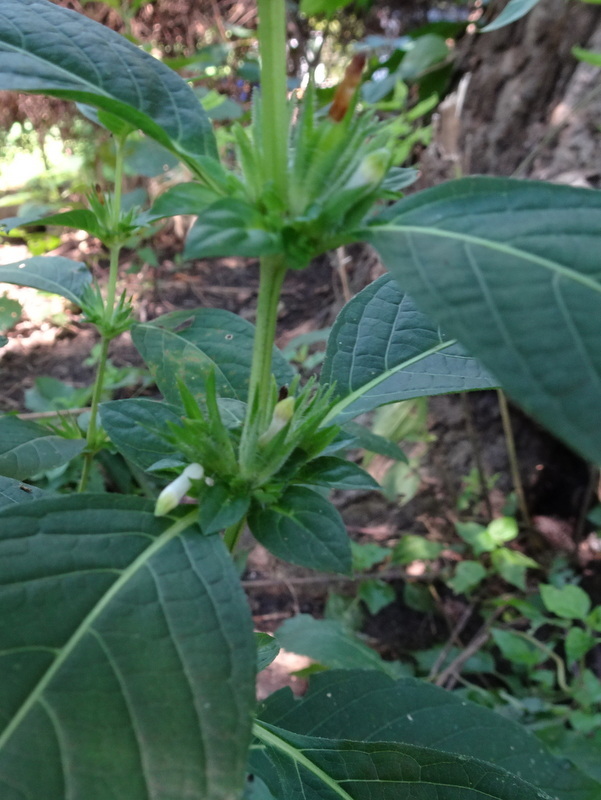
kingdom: Plantae
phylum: Tracheophyta
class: Magnoliopsida
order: Lamiales
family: Acanthaceae
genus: Ruellia
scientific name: Ruellia strepens
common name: Limestone wild petunia
